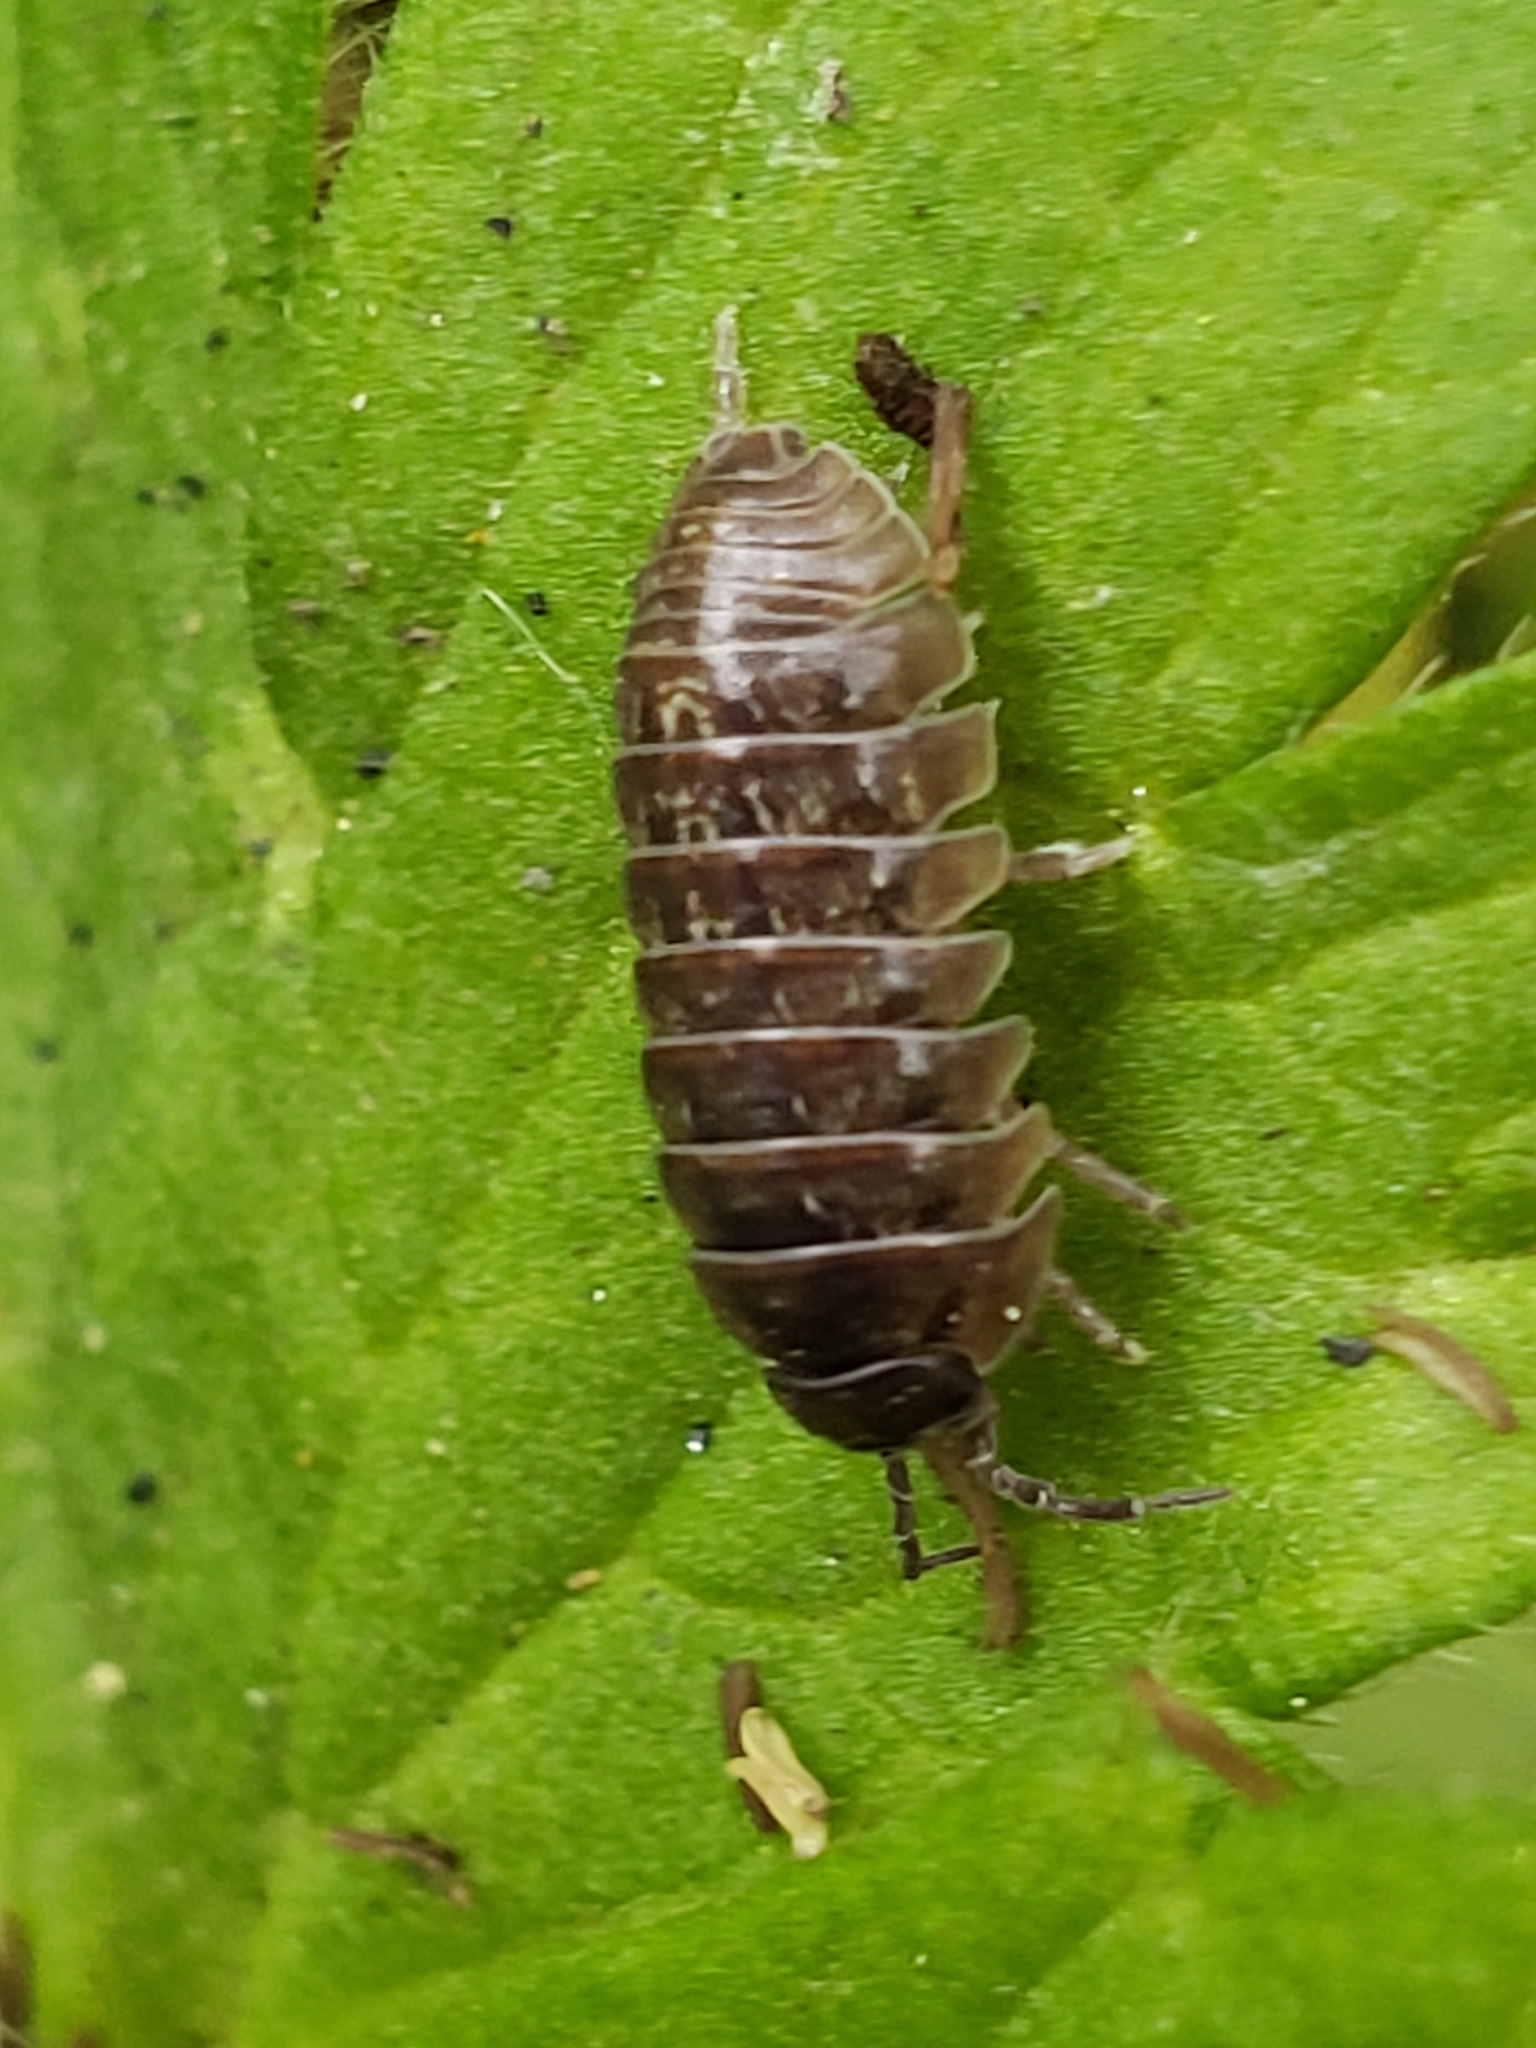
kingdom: Animalia
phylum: Arthropoda
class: Malacostraca
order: Isopoda
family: Armadillidiidae
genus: Armadillidium
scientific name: Armadillidium vulgare
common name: Common pill woodlouse
